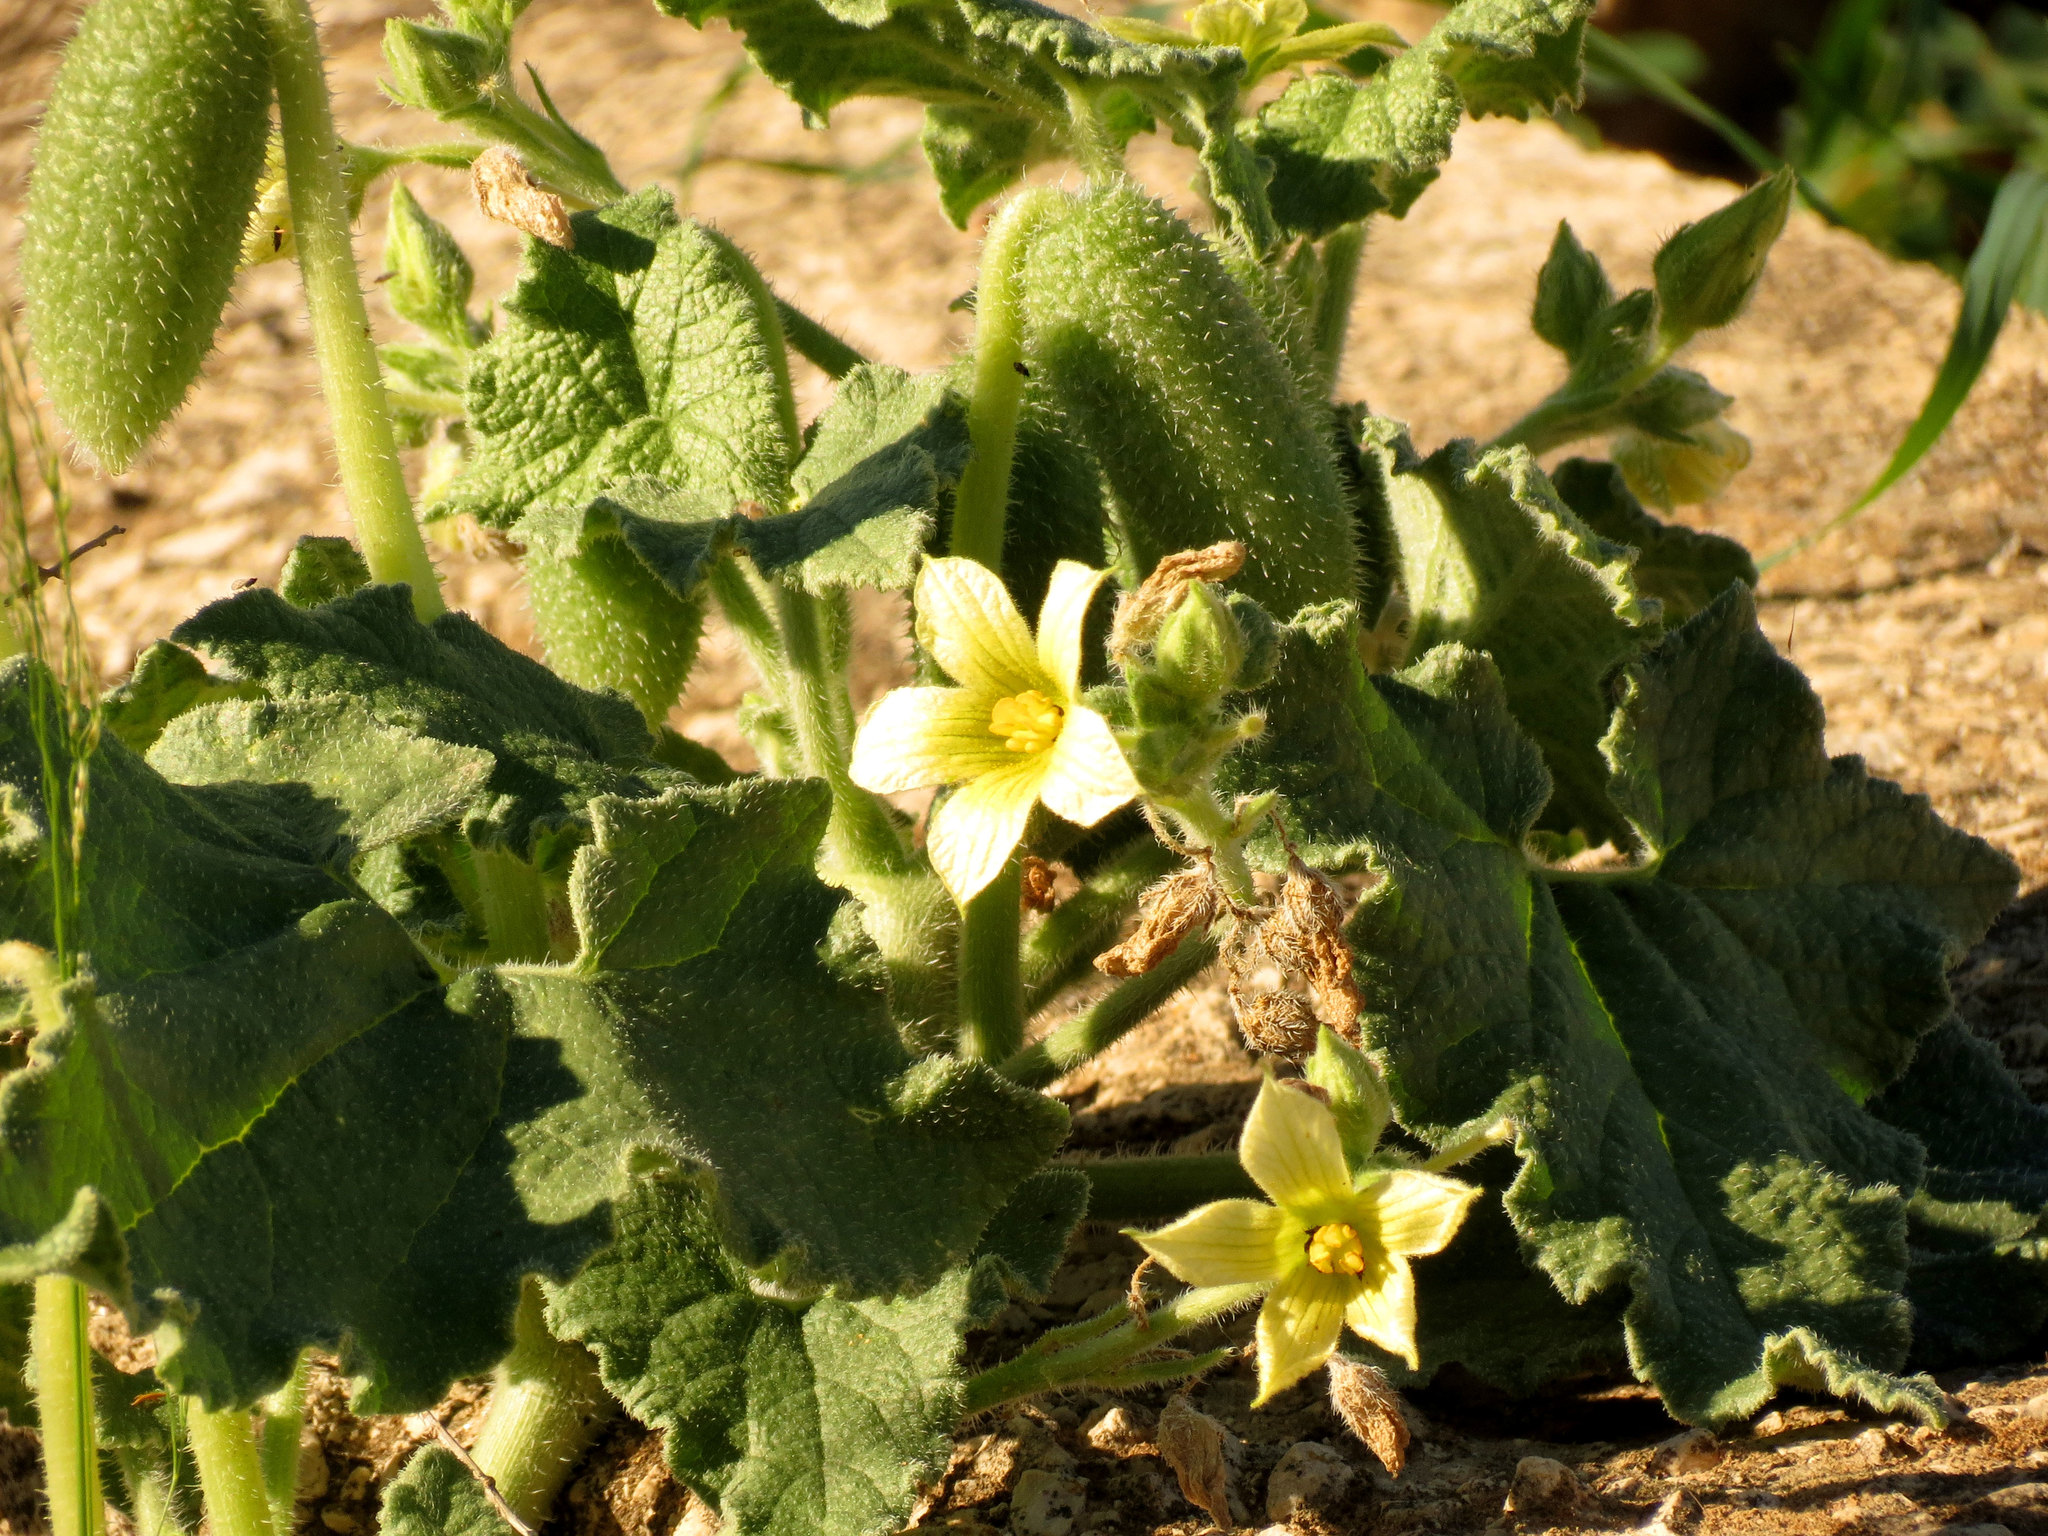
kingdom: Plantae
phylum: Tracheophyta
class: Magnoliopsida
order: Cucurbitales
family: Cucurbitaceae
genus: Ecballium
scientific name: Ecballium elaterium
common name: Squirting cucumber
